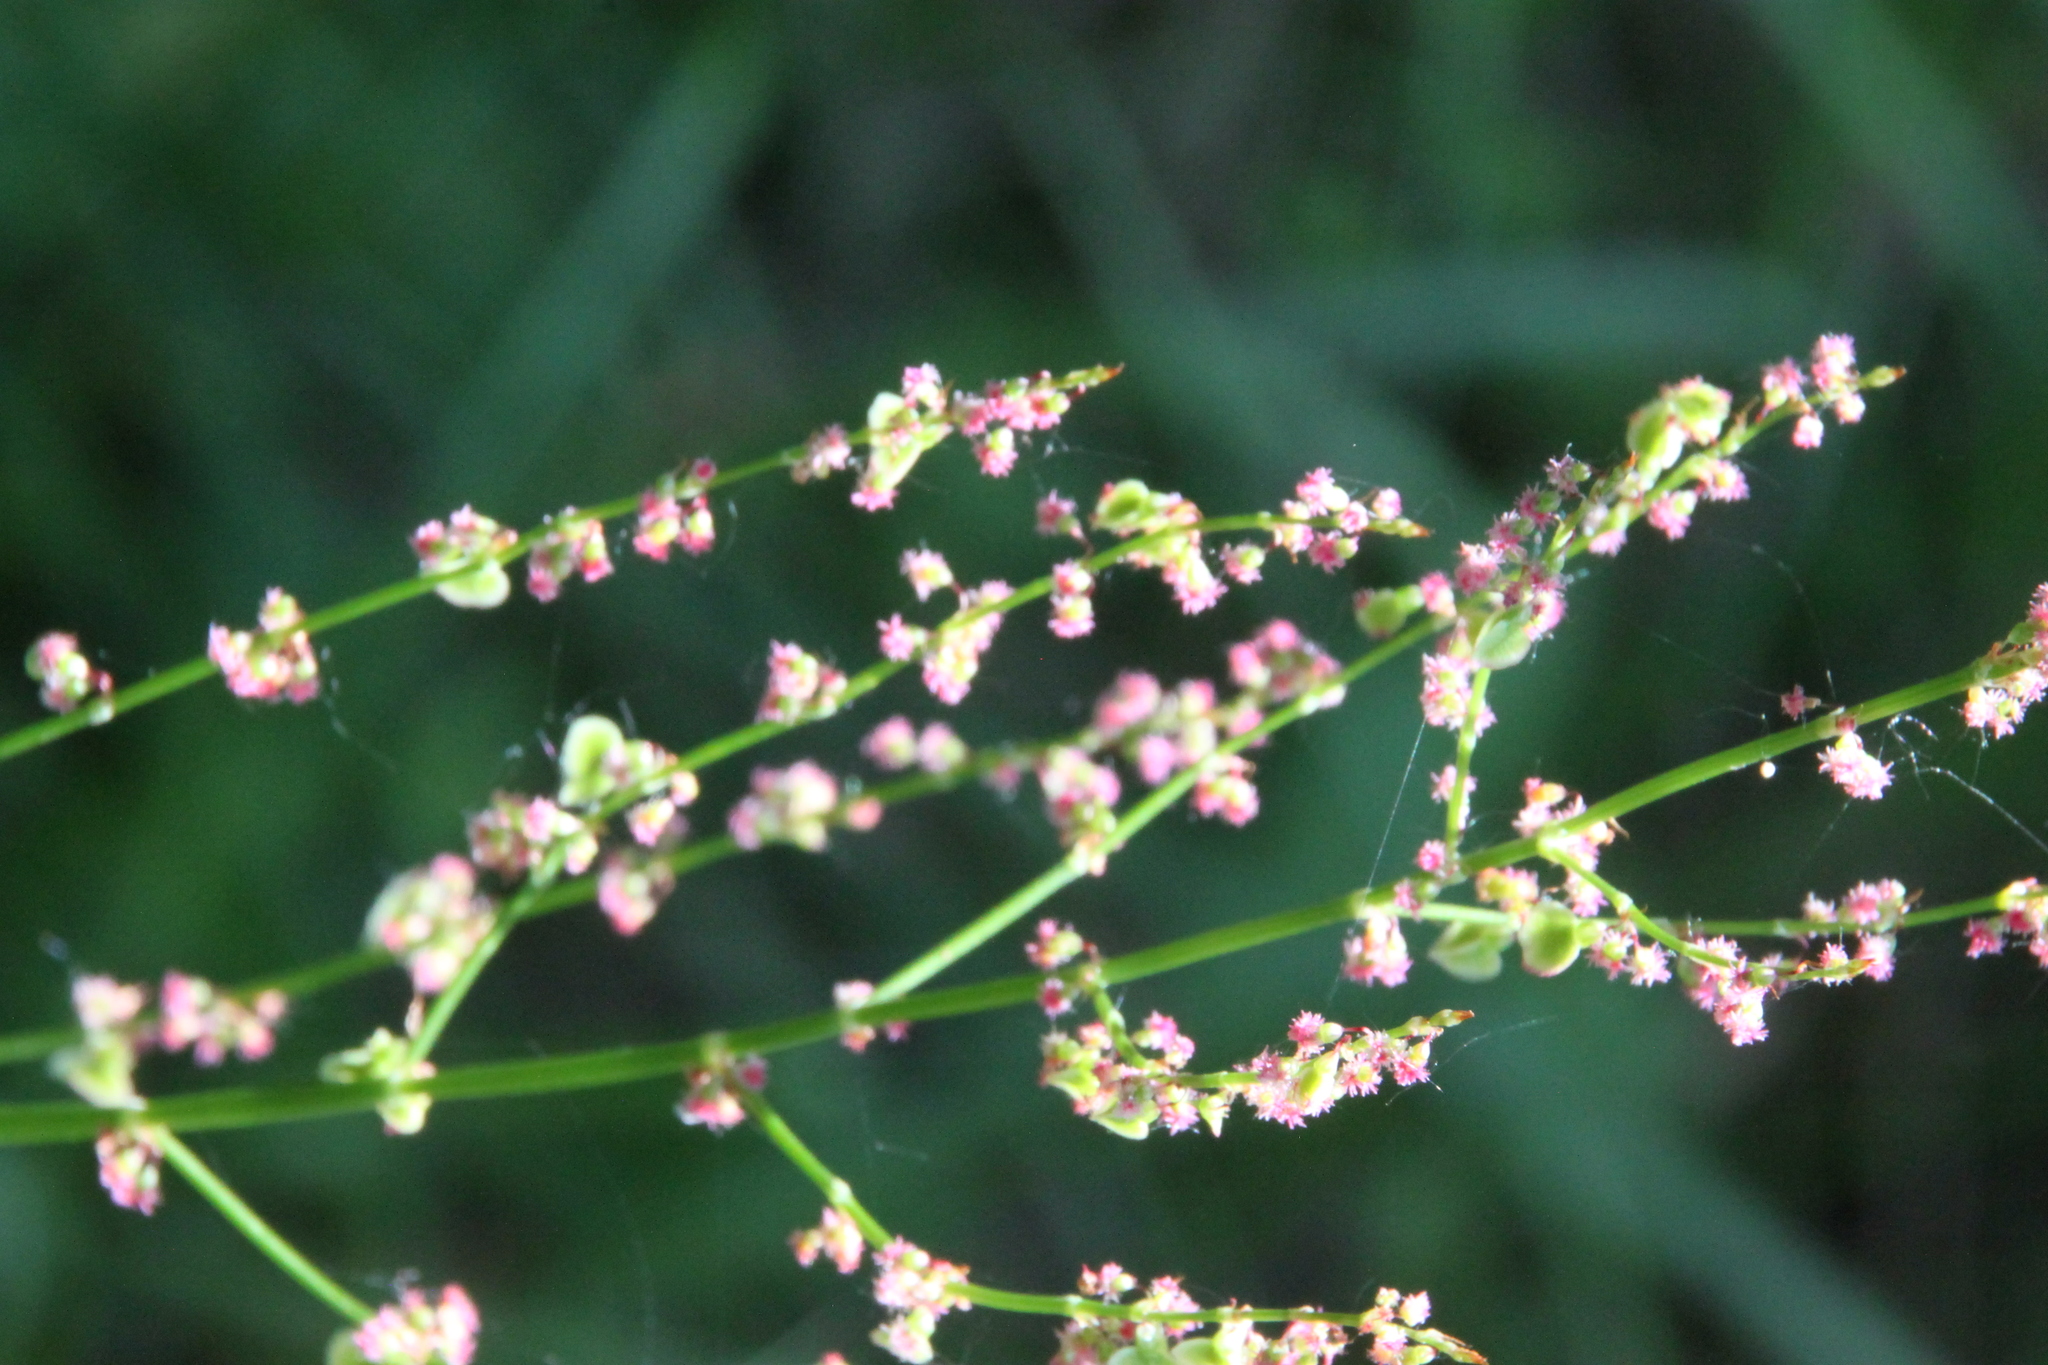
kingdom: Plantae
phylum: Tracheophyta
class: Magnoliopsida
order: Caryophyllales
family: Polygonaceae
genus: Rumex
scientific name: Rumex acetosa
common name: Garden sorrel
